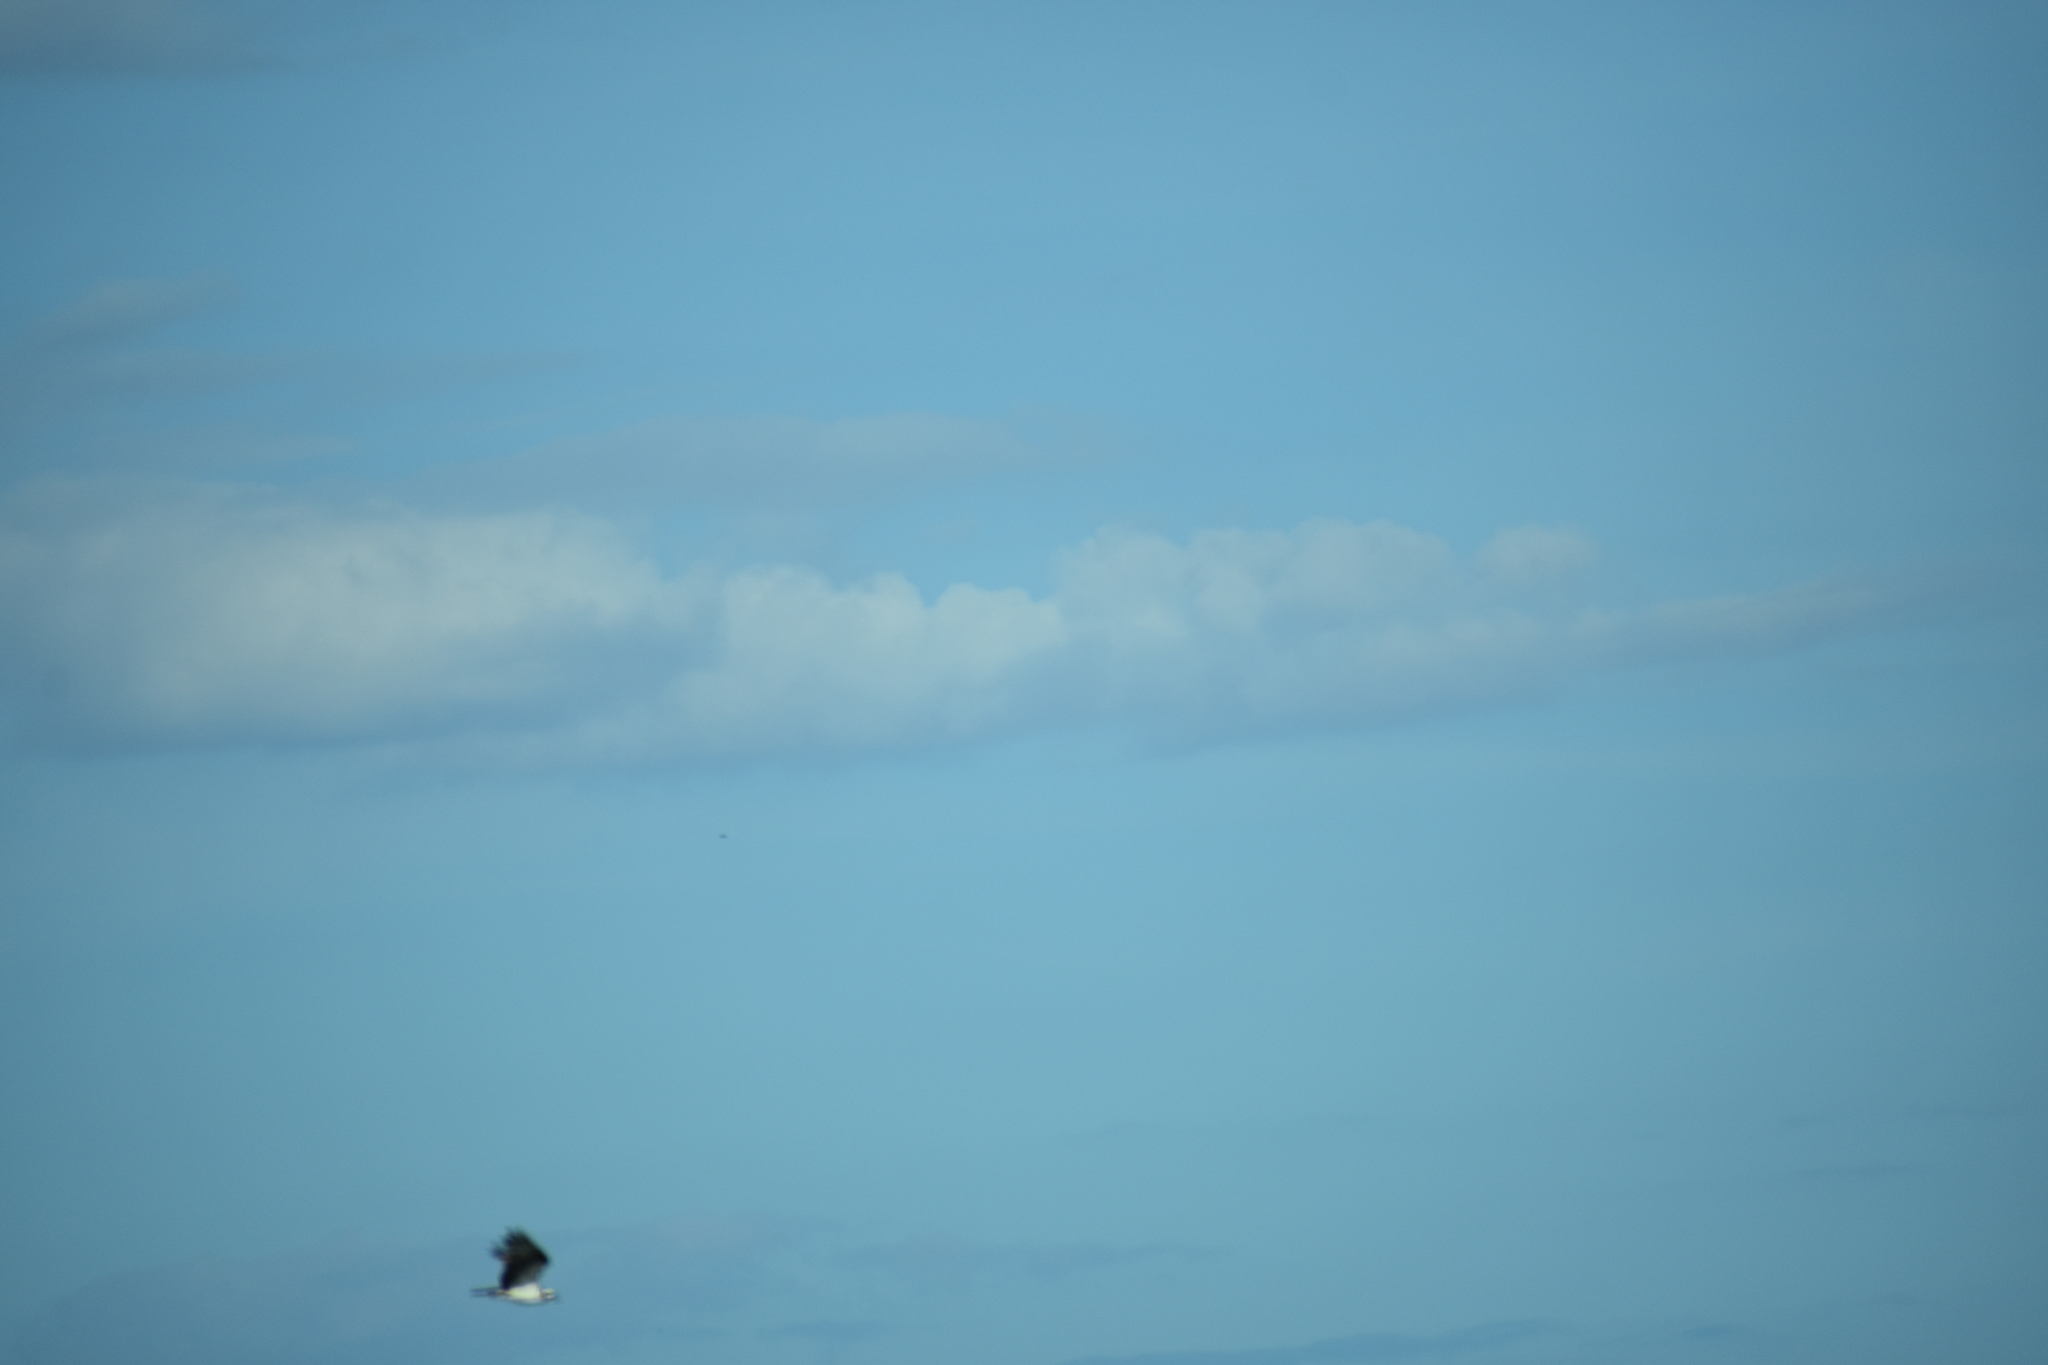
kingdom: Animalia
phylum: Chordata
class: Aves
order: Accipitriformes
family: Pandionidae
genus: Pandion
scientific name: Pandion haliaetus
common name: Osprey
